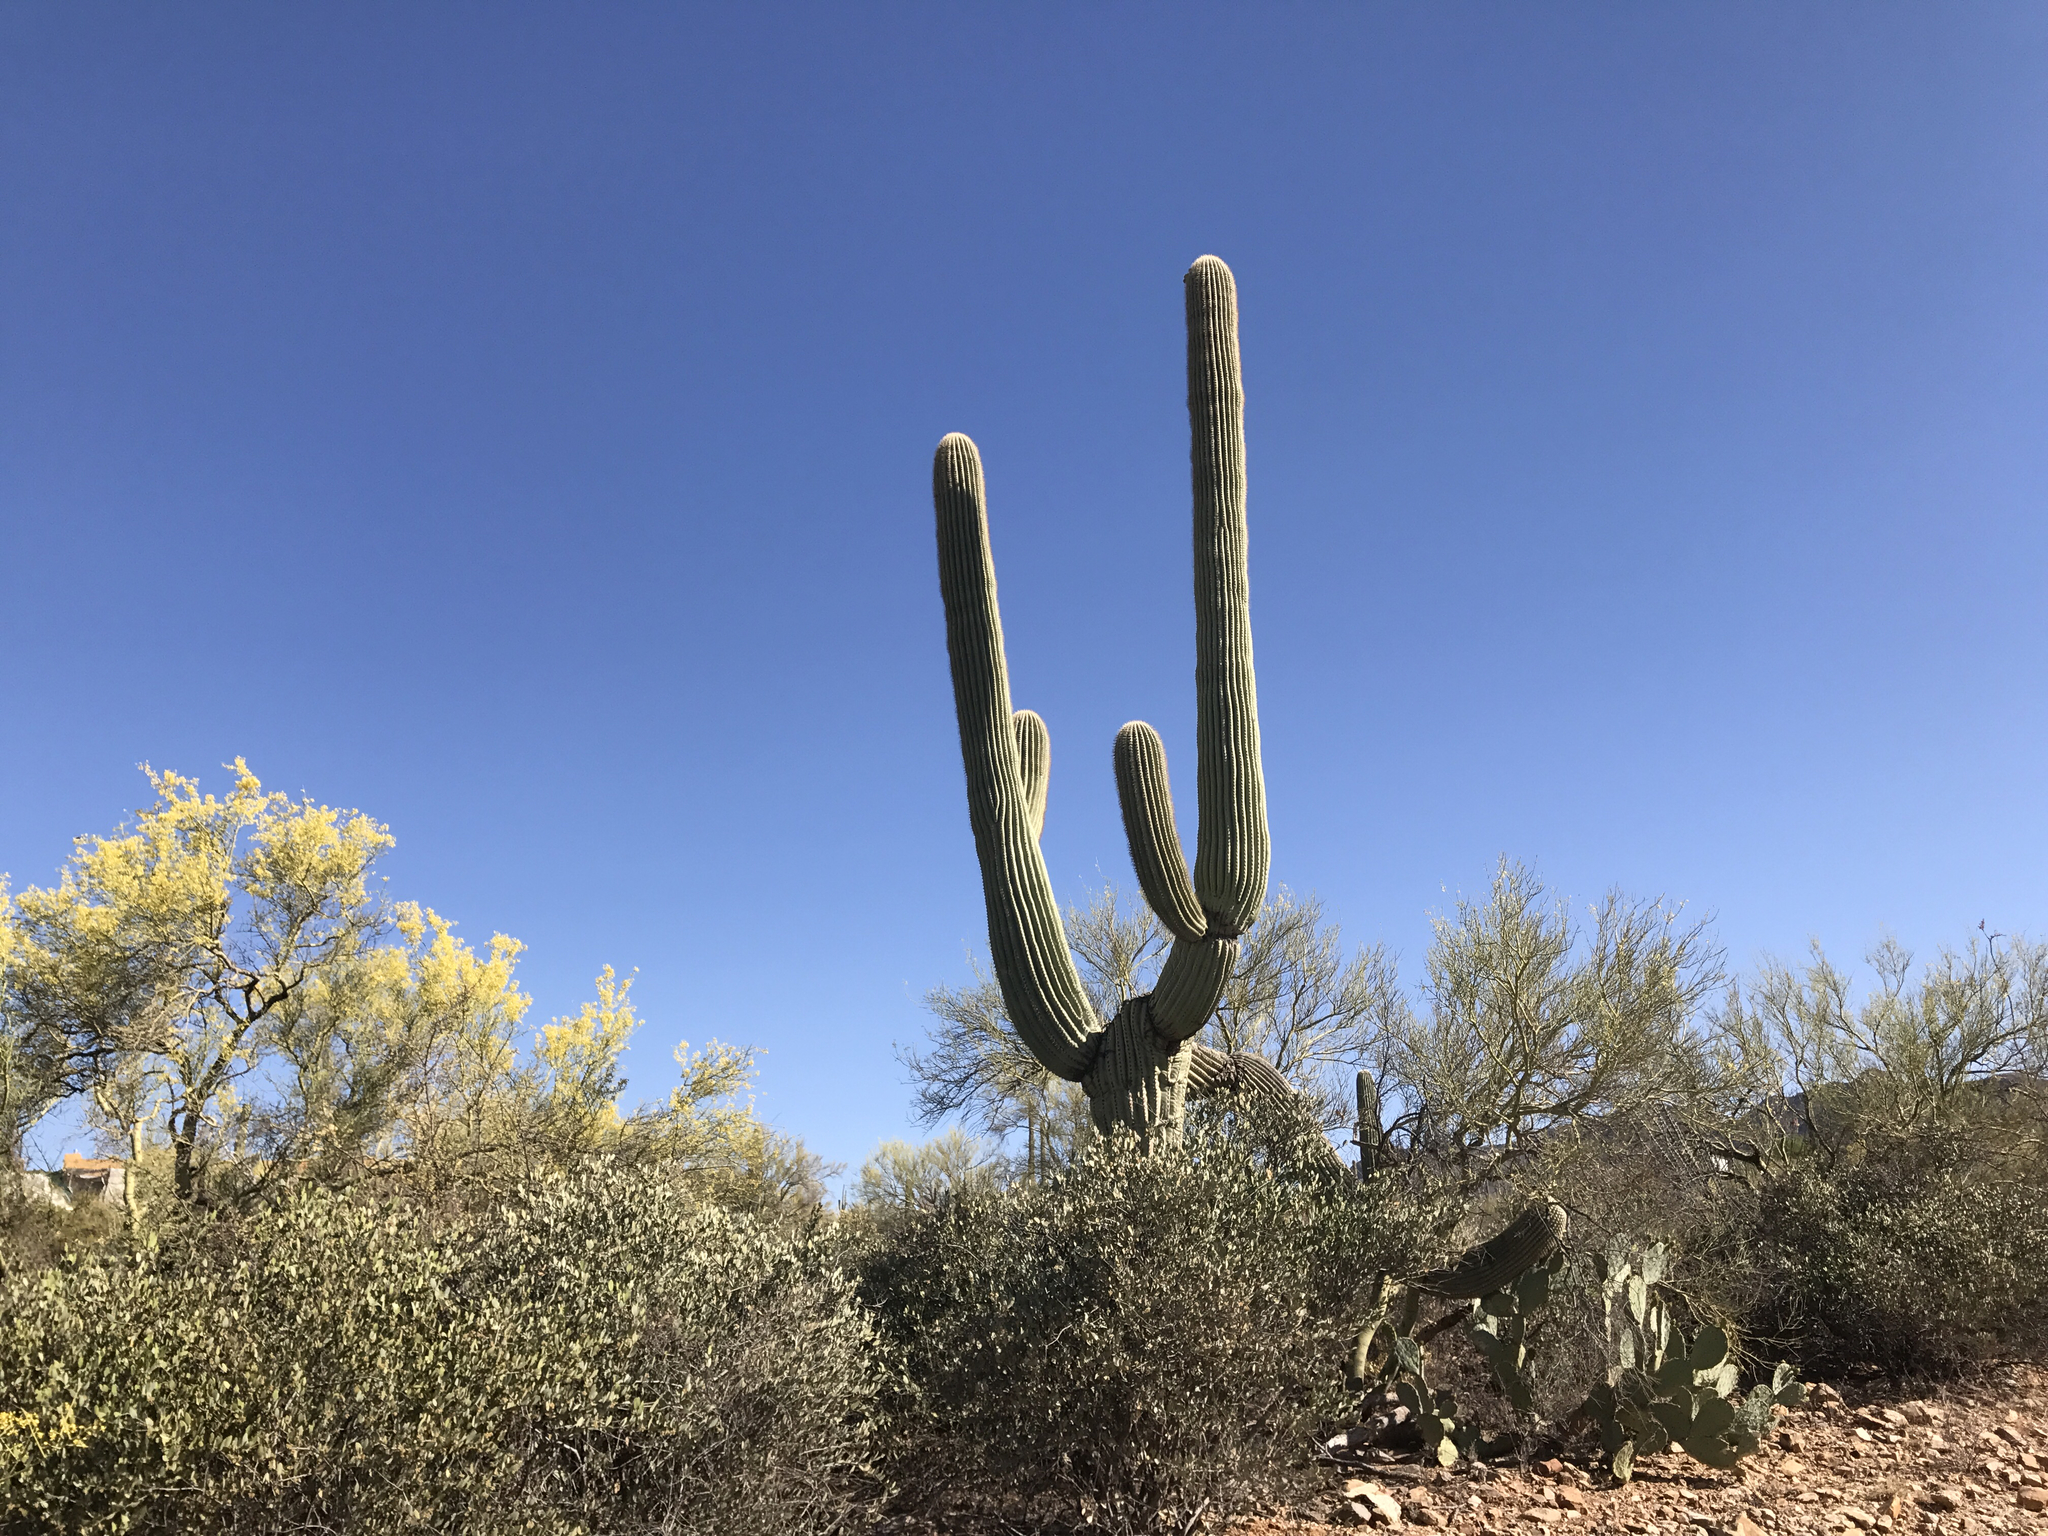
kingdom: Plantae
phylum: Tracheophyta
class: Magnoliopsida
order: Caryophyllales
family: Cactaceae
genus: Carnegiea
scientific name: Carnegiea gigantea
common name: Saguaro
